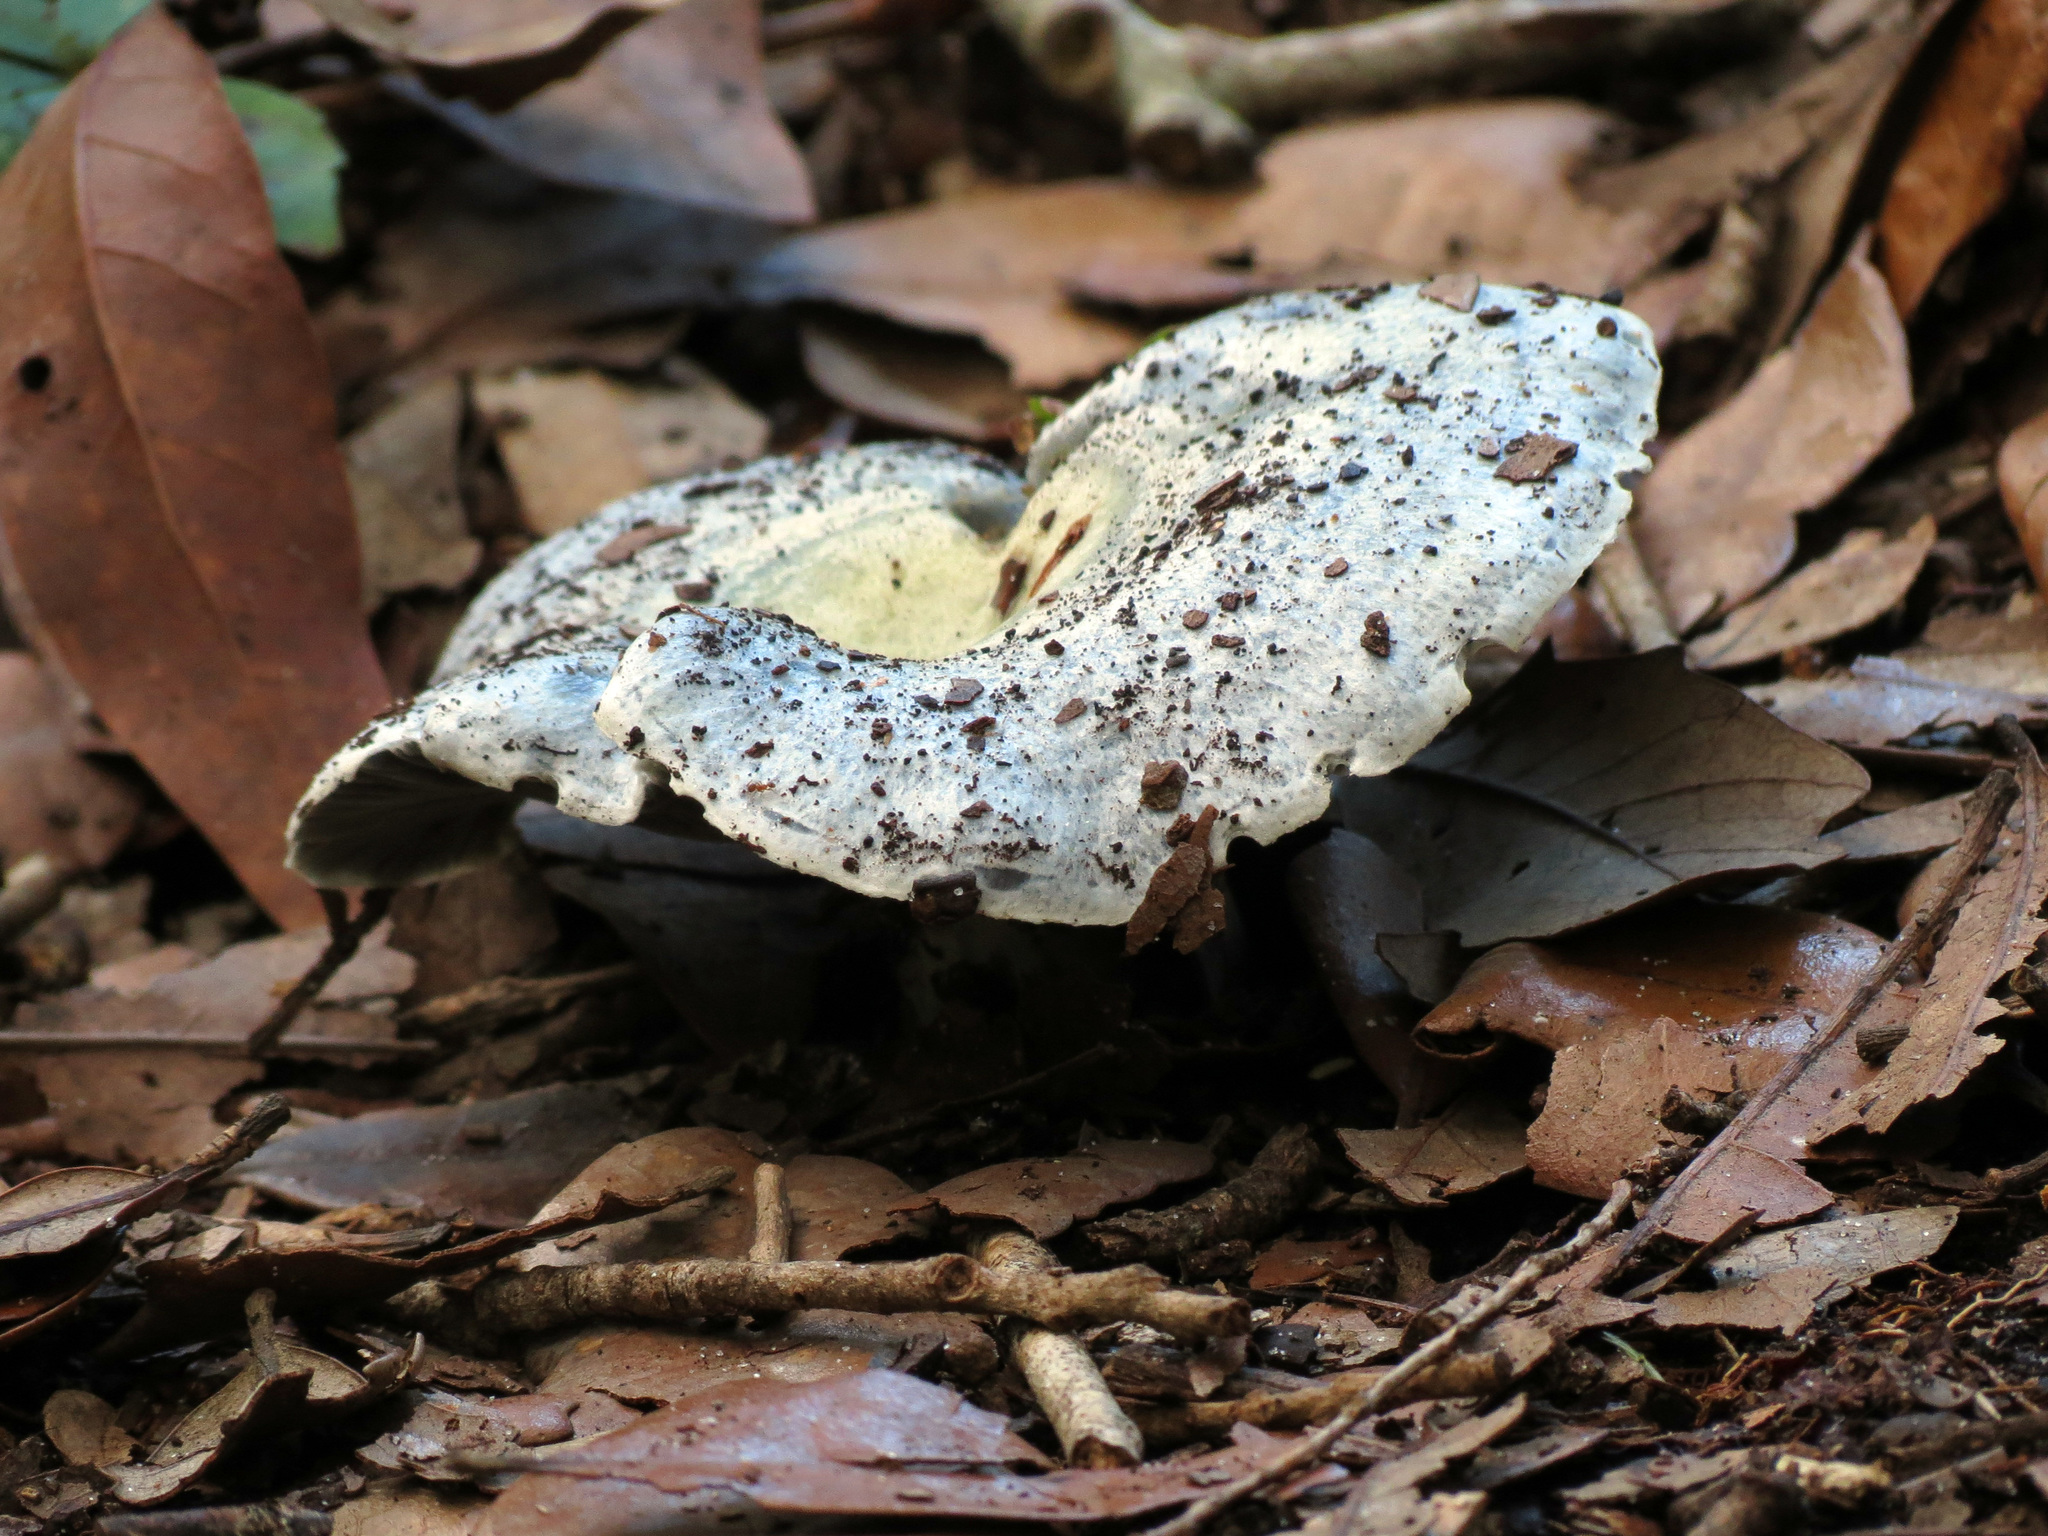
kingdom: Fungi
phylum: Basidiomycota
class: Agaricomycetes
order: Russulales
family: Russulaceae
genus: Lactarius
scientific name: Lactarius indigo
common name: Indigo milk cap
